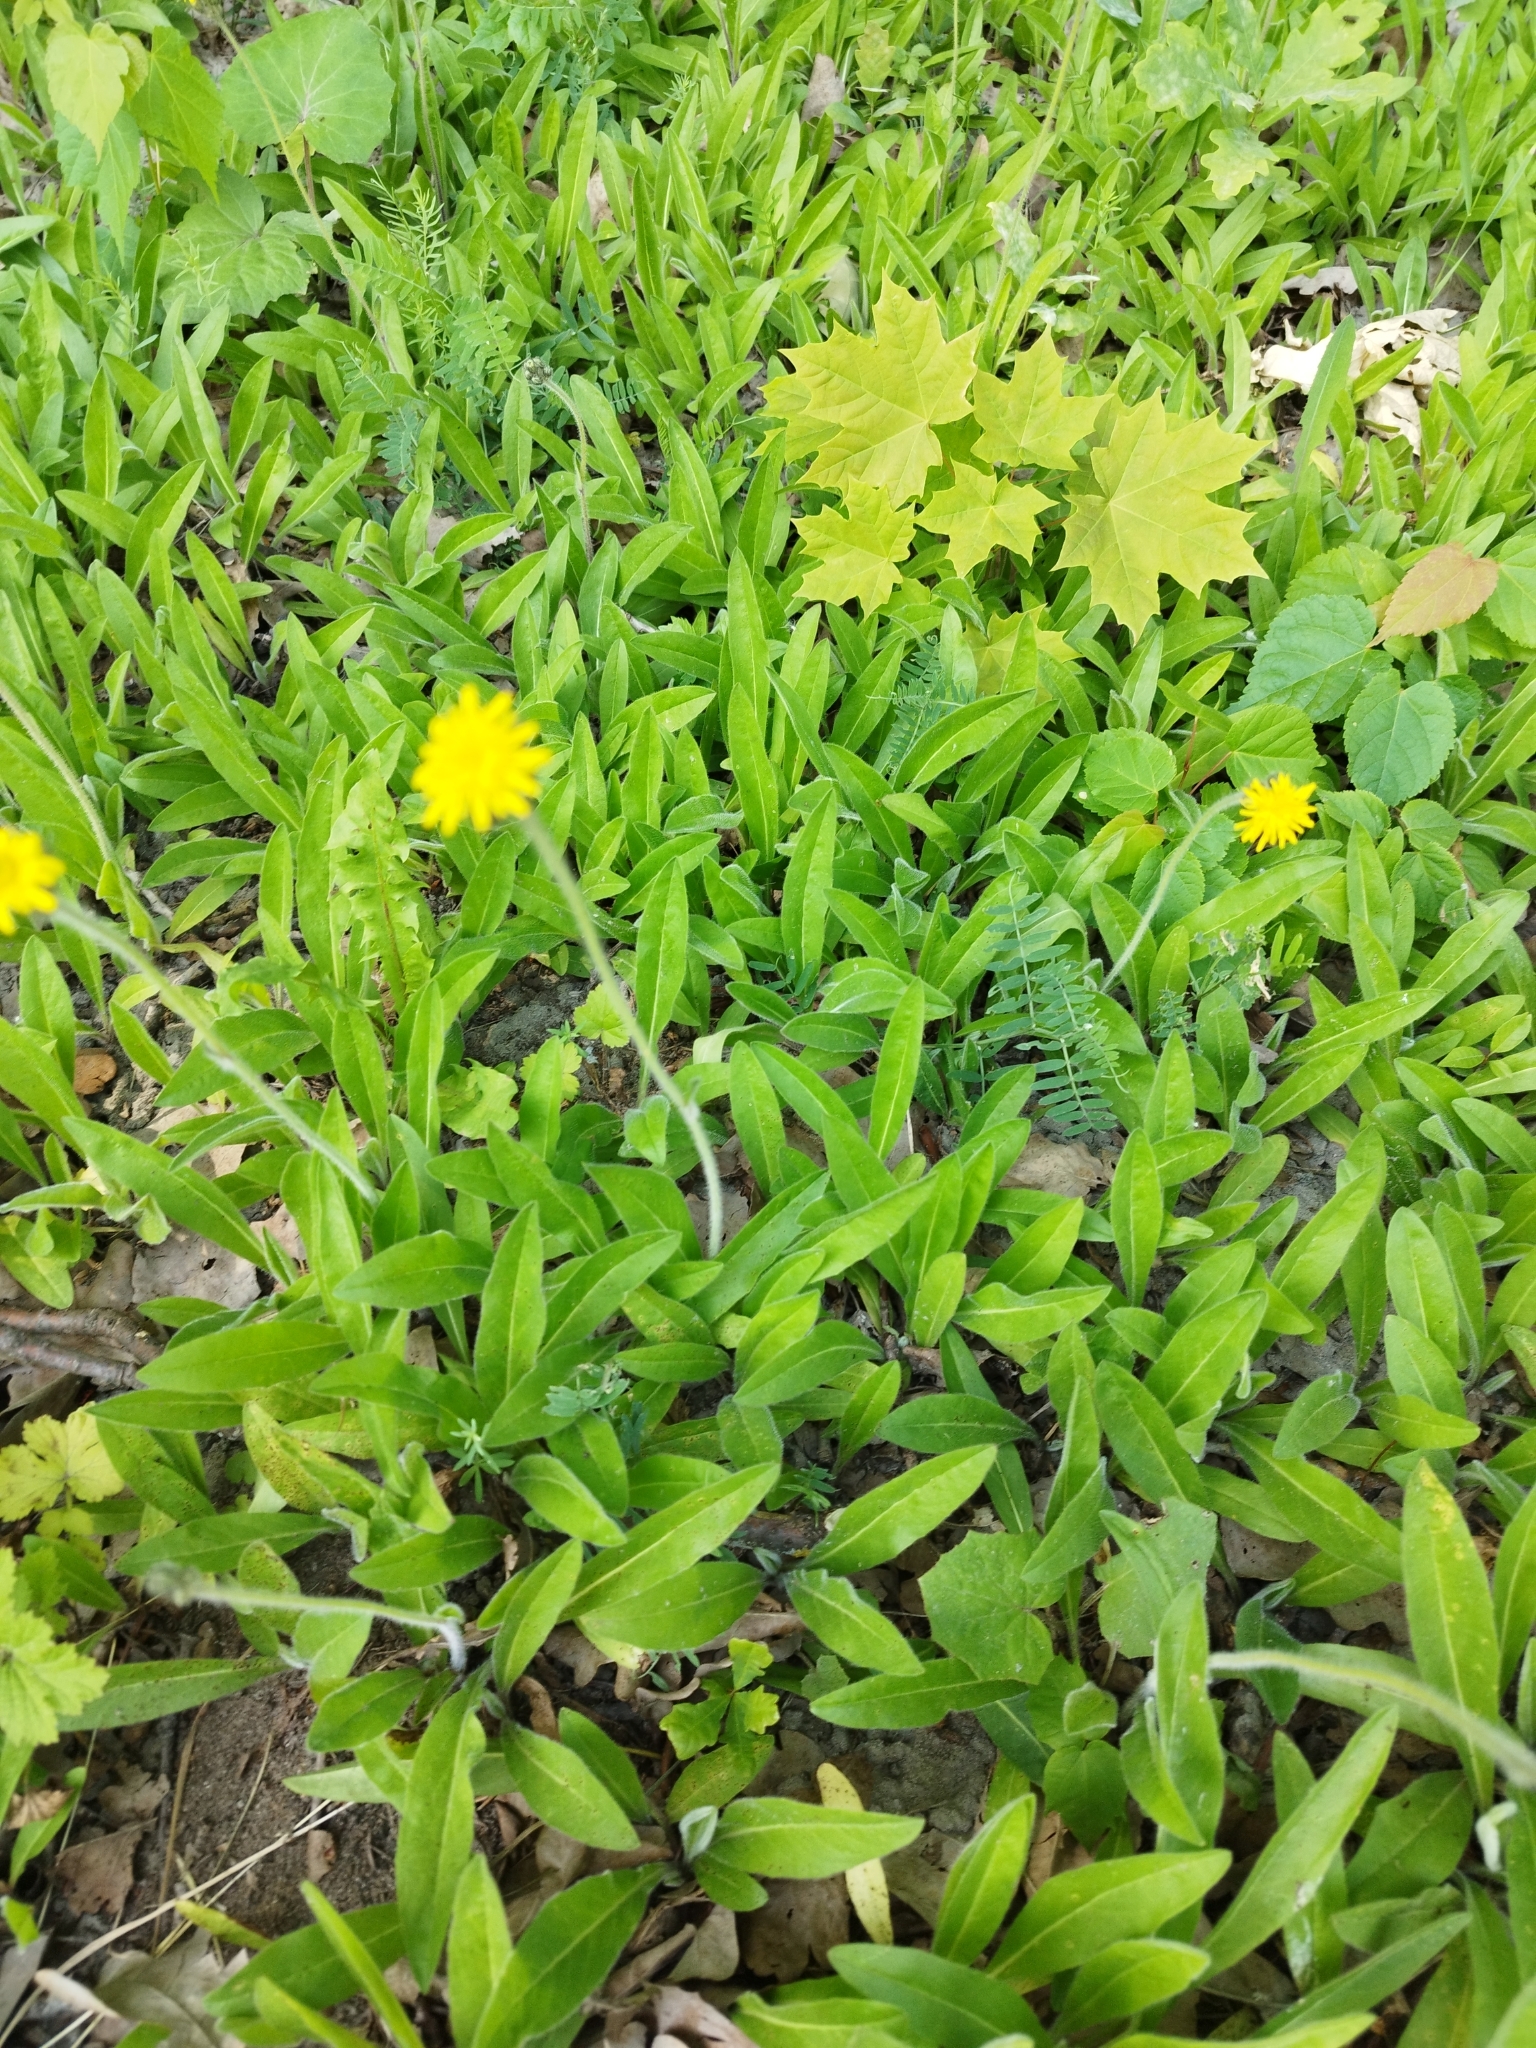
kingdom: Plantae
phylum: Tracheophyta
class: Magnoliopsida
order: Asterales
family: Asteraceae
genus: Pilosella
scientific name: Pilosella onegensis
